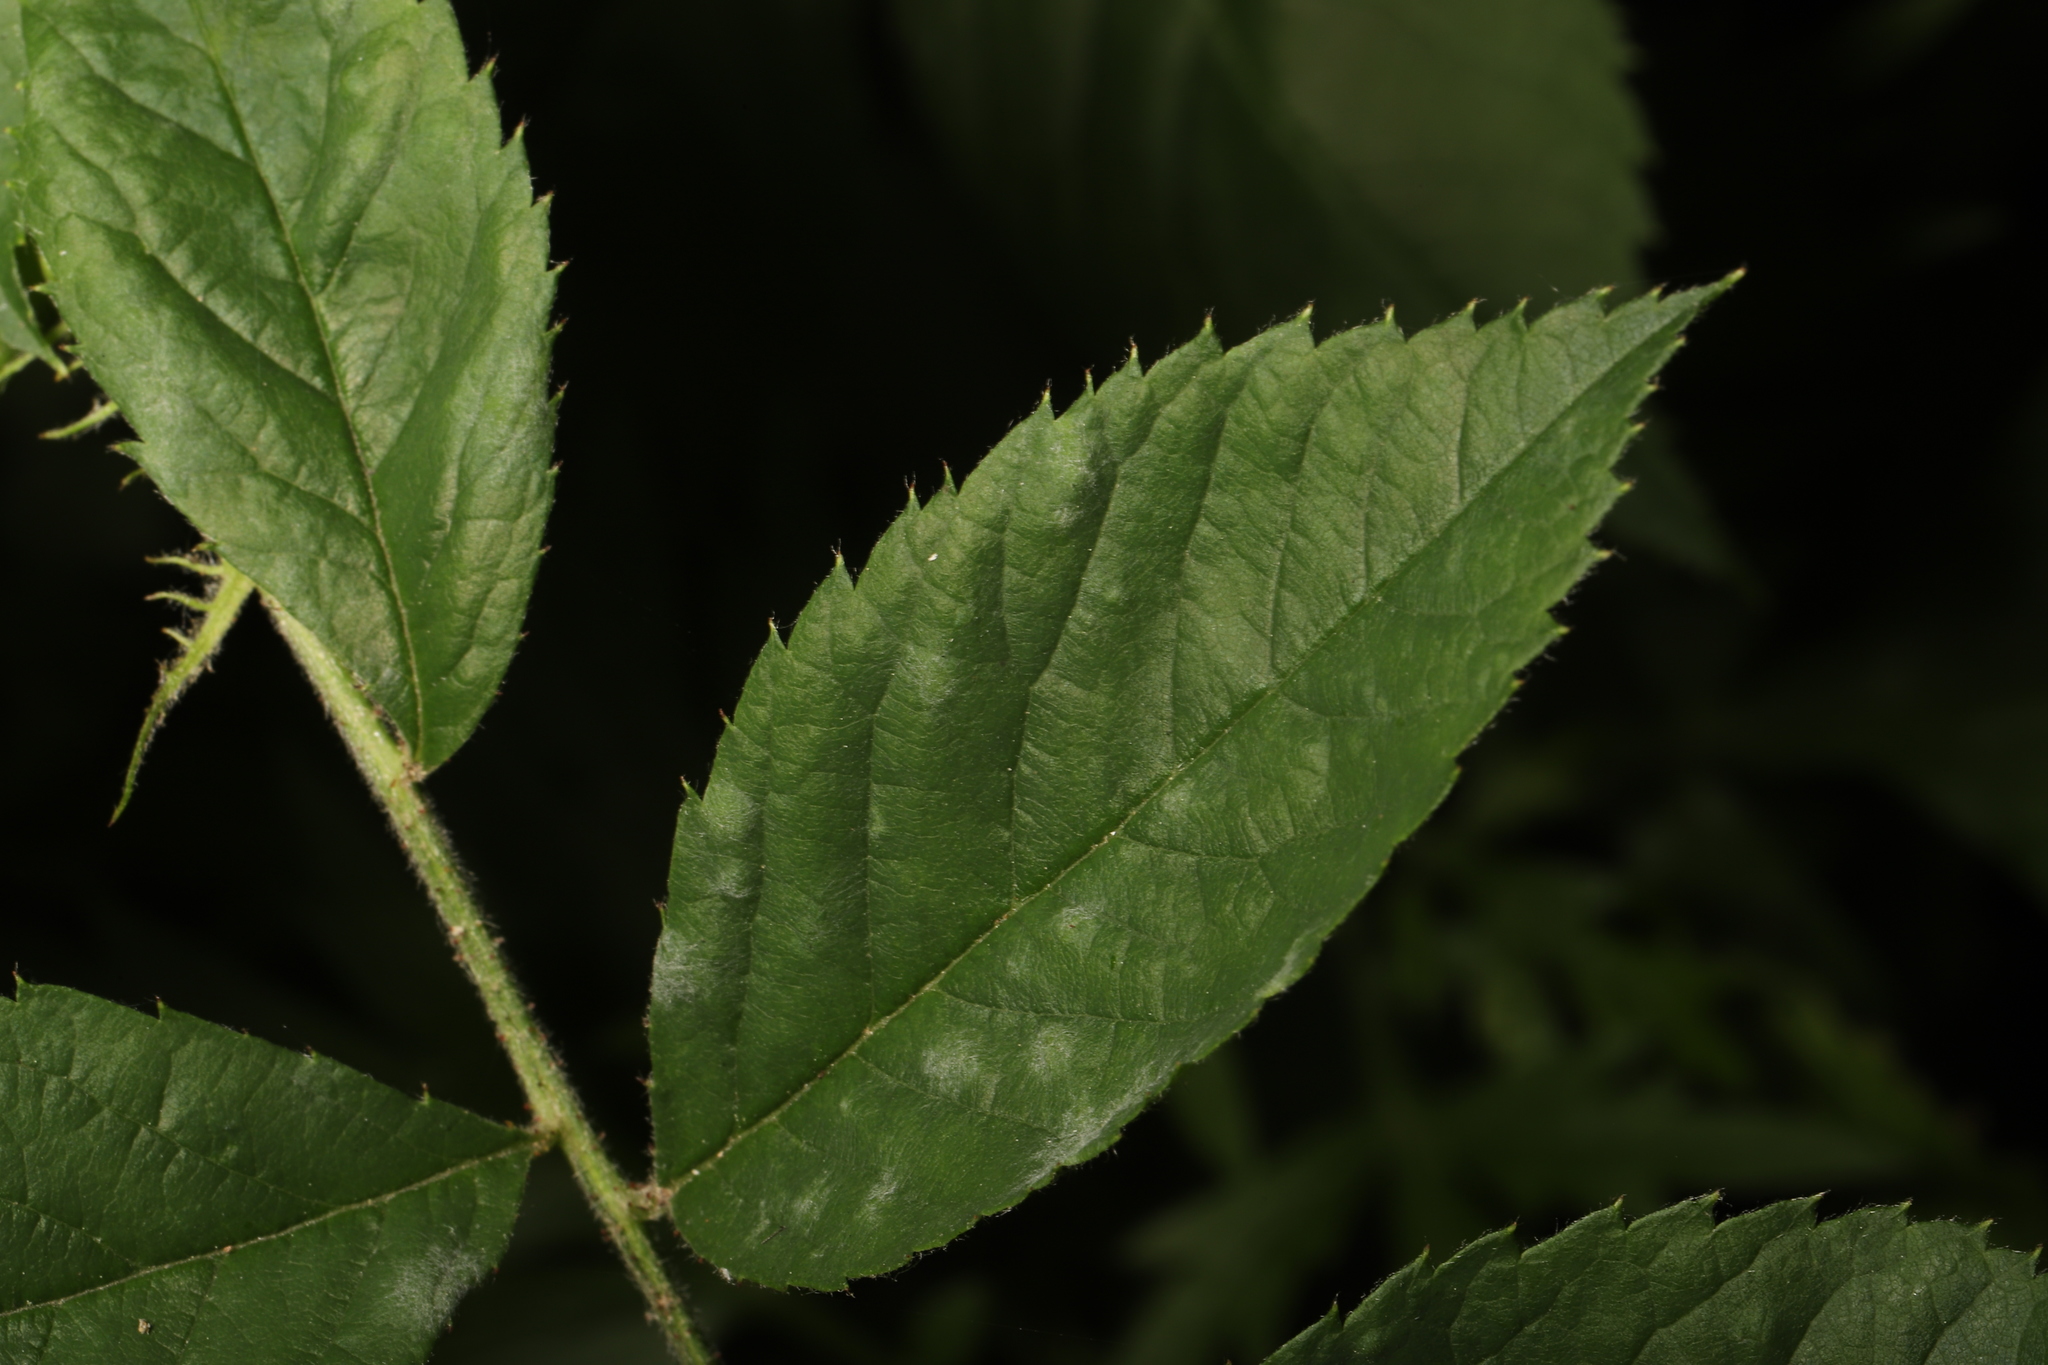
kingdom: Fungi
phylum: Ascomycota
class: Leotiomycetes
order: Helotiales
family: Erysiphaceae
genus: Podosphaera
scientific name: Podosphaera pannosa
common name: Rose mildew
